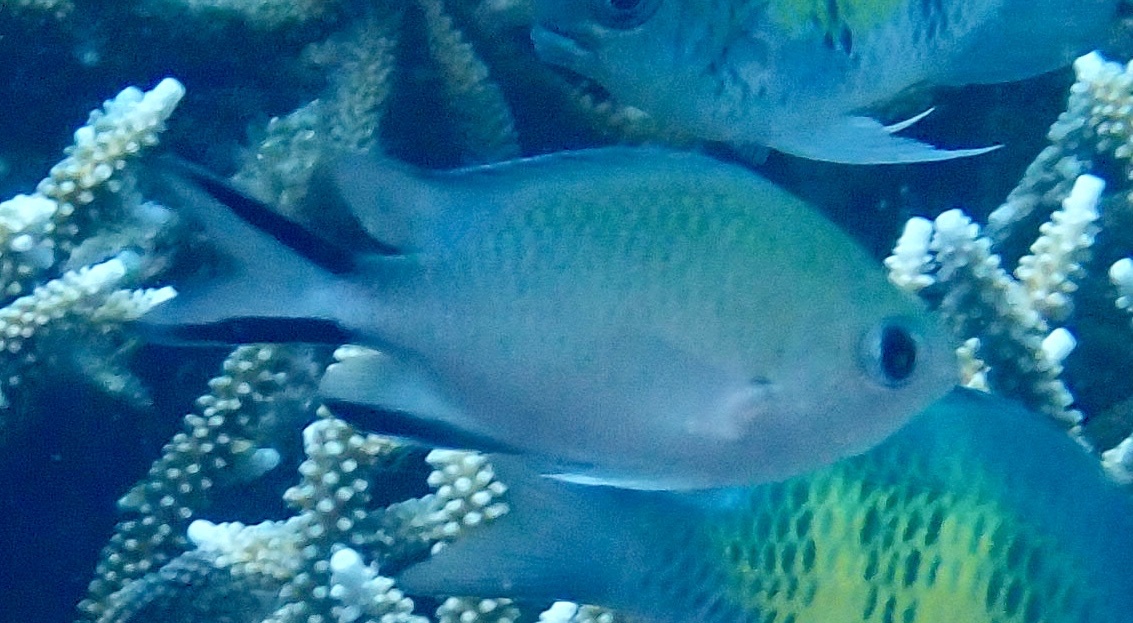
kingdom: Animalia
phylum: Chordata
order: Perciformes
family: Pomacentridae
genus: Chromis
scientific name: Chromis scotochiloptera
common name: Philippines chromis
